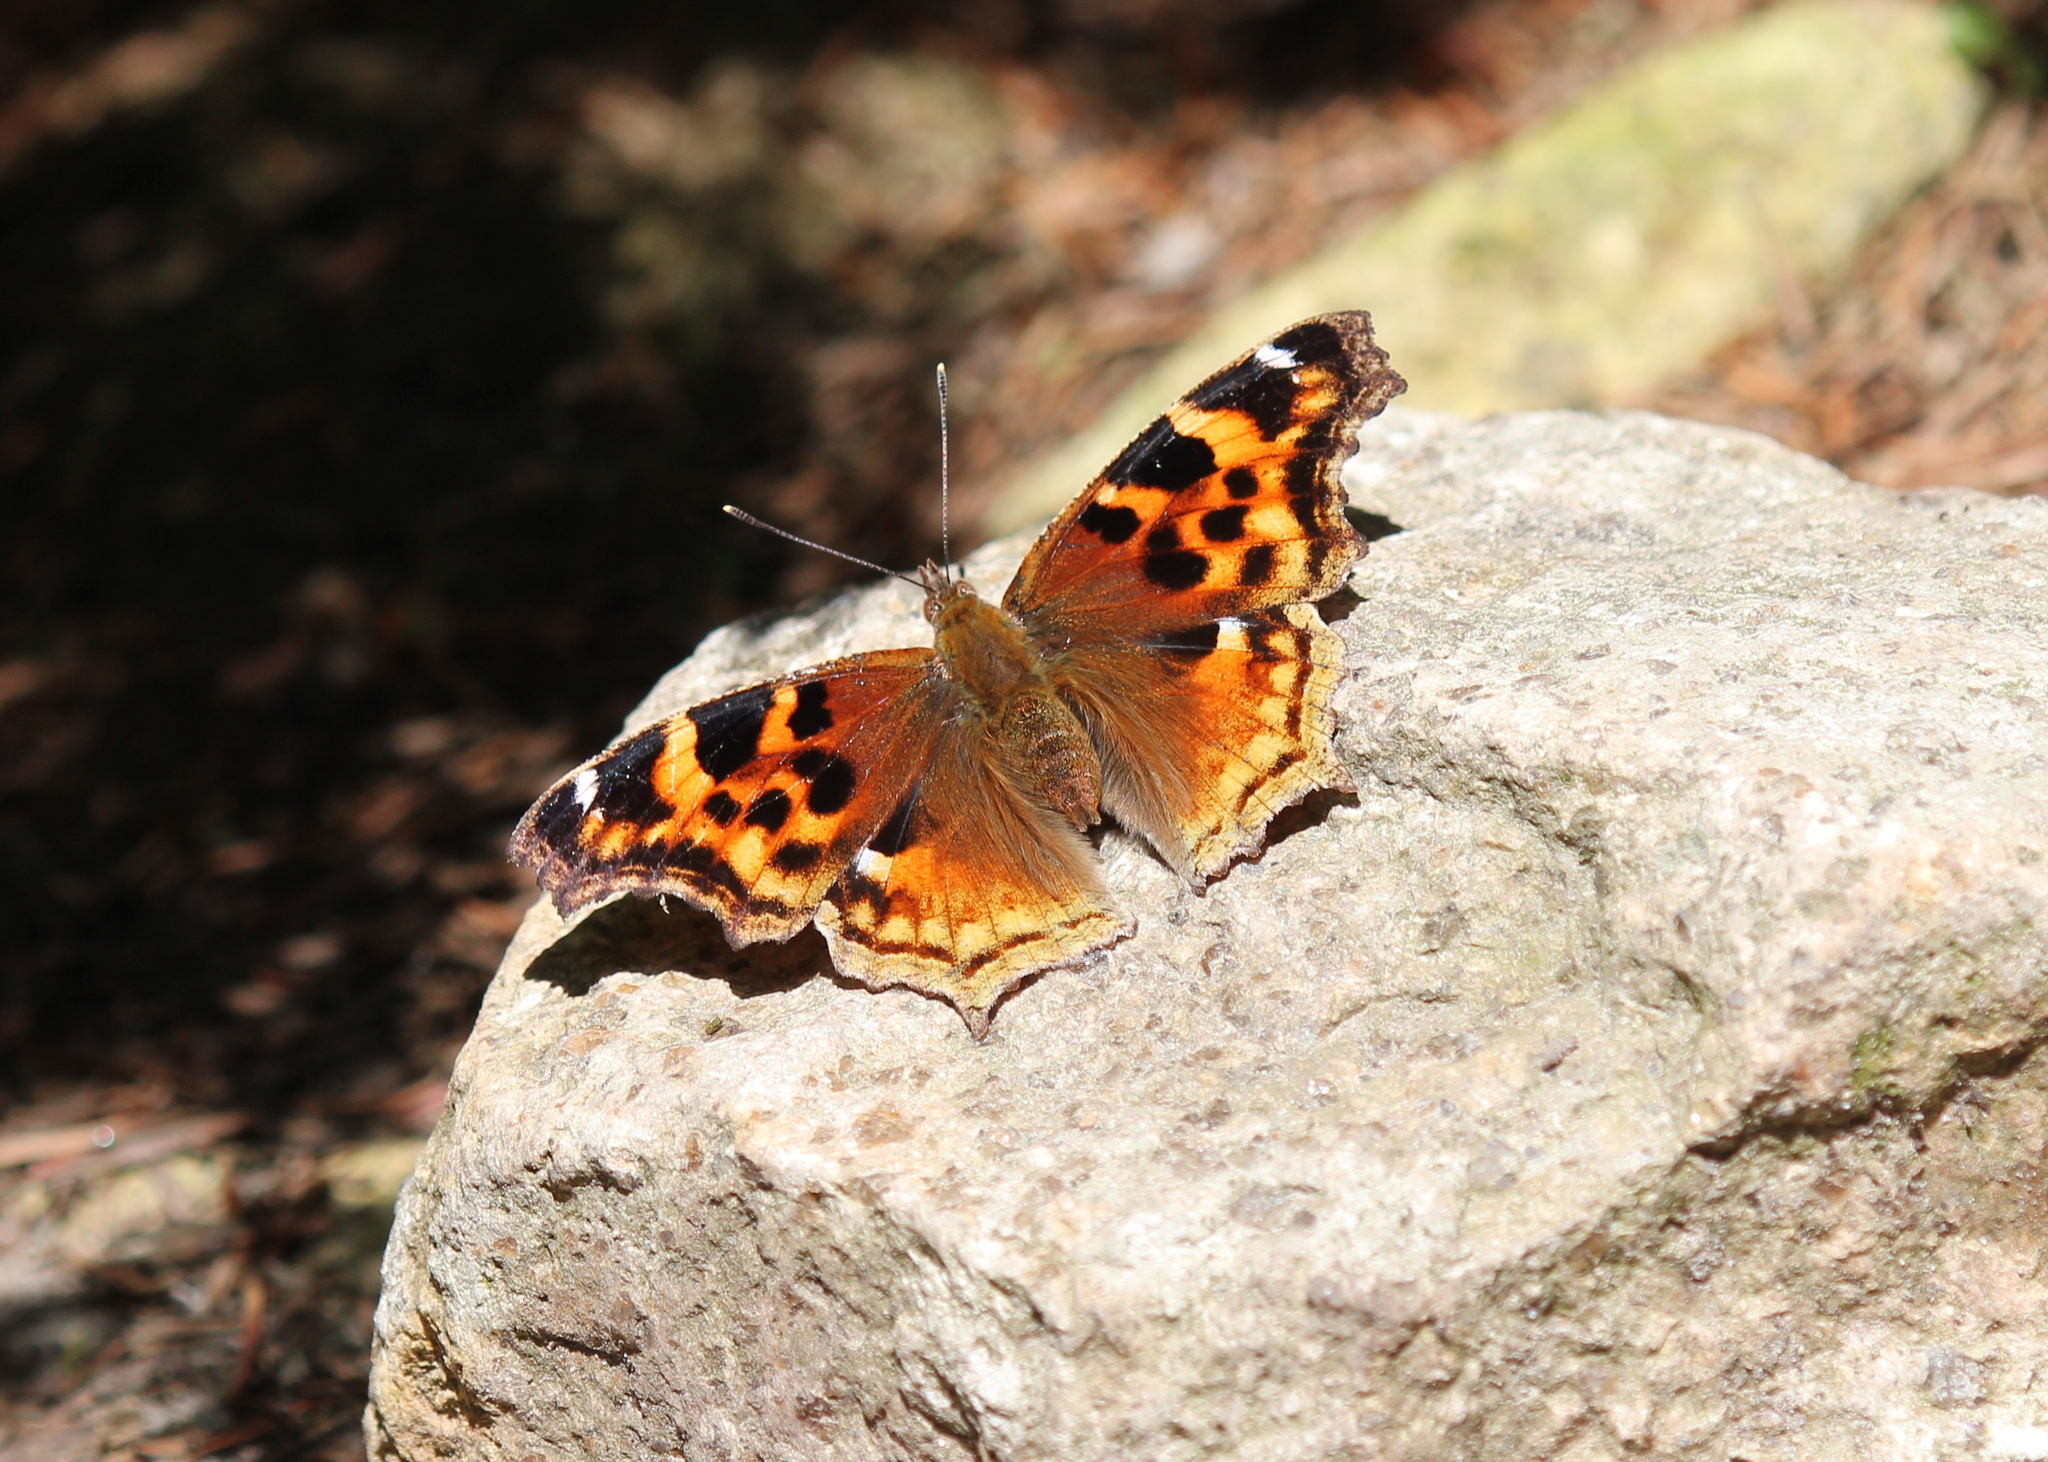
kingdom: Animalia
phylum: Arthropoda
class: Insecta
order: Lepidoptera
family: Nymphalidae
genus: Polygonia
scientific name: Polygonia vaualbum
